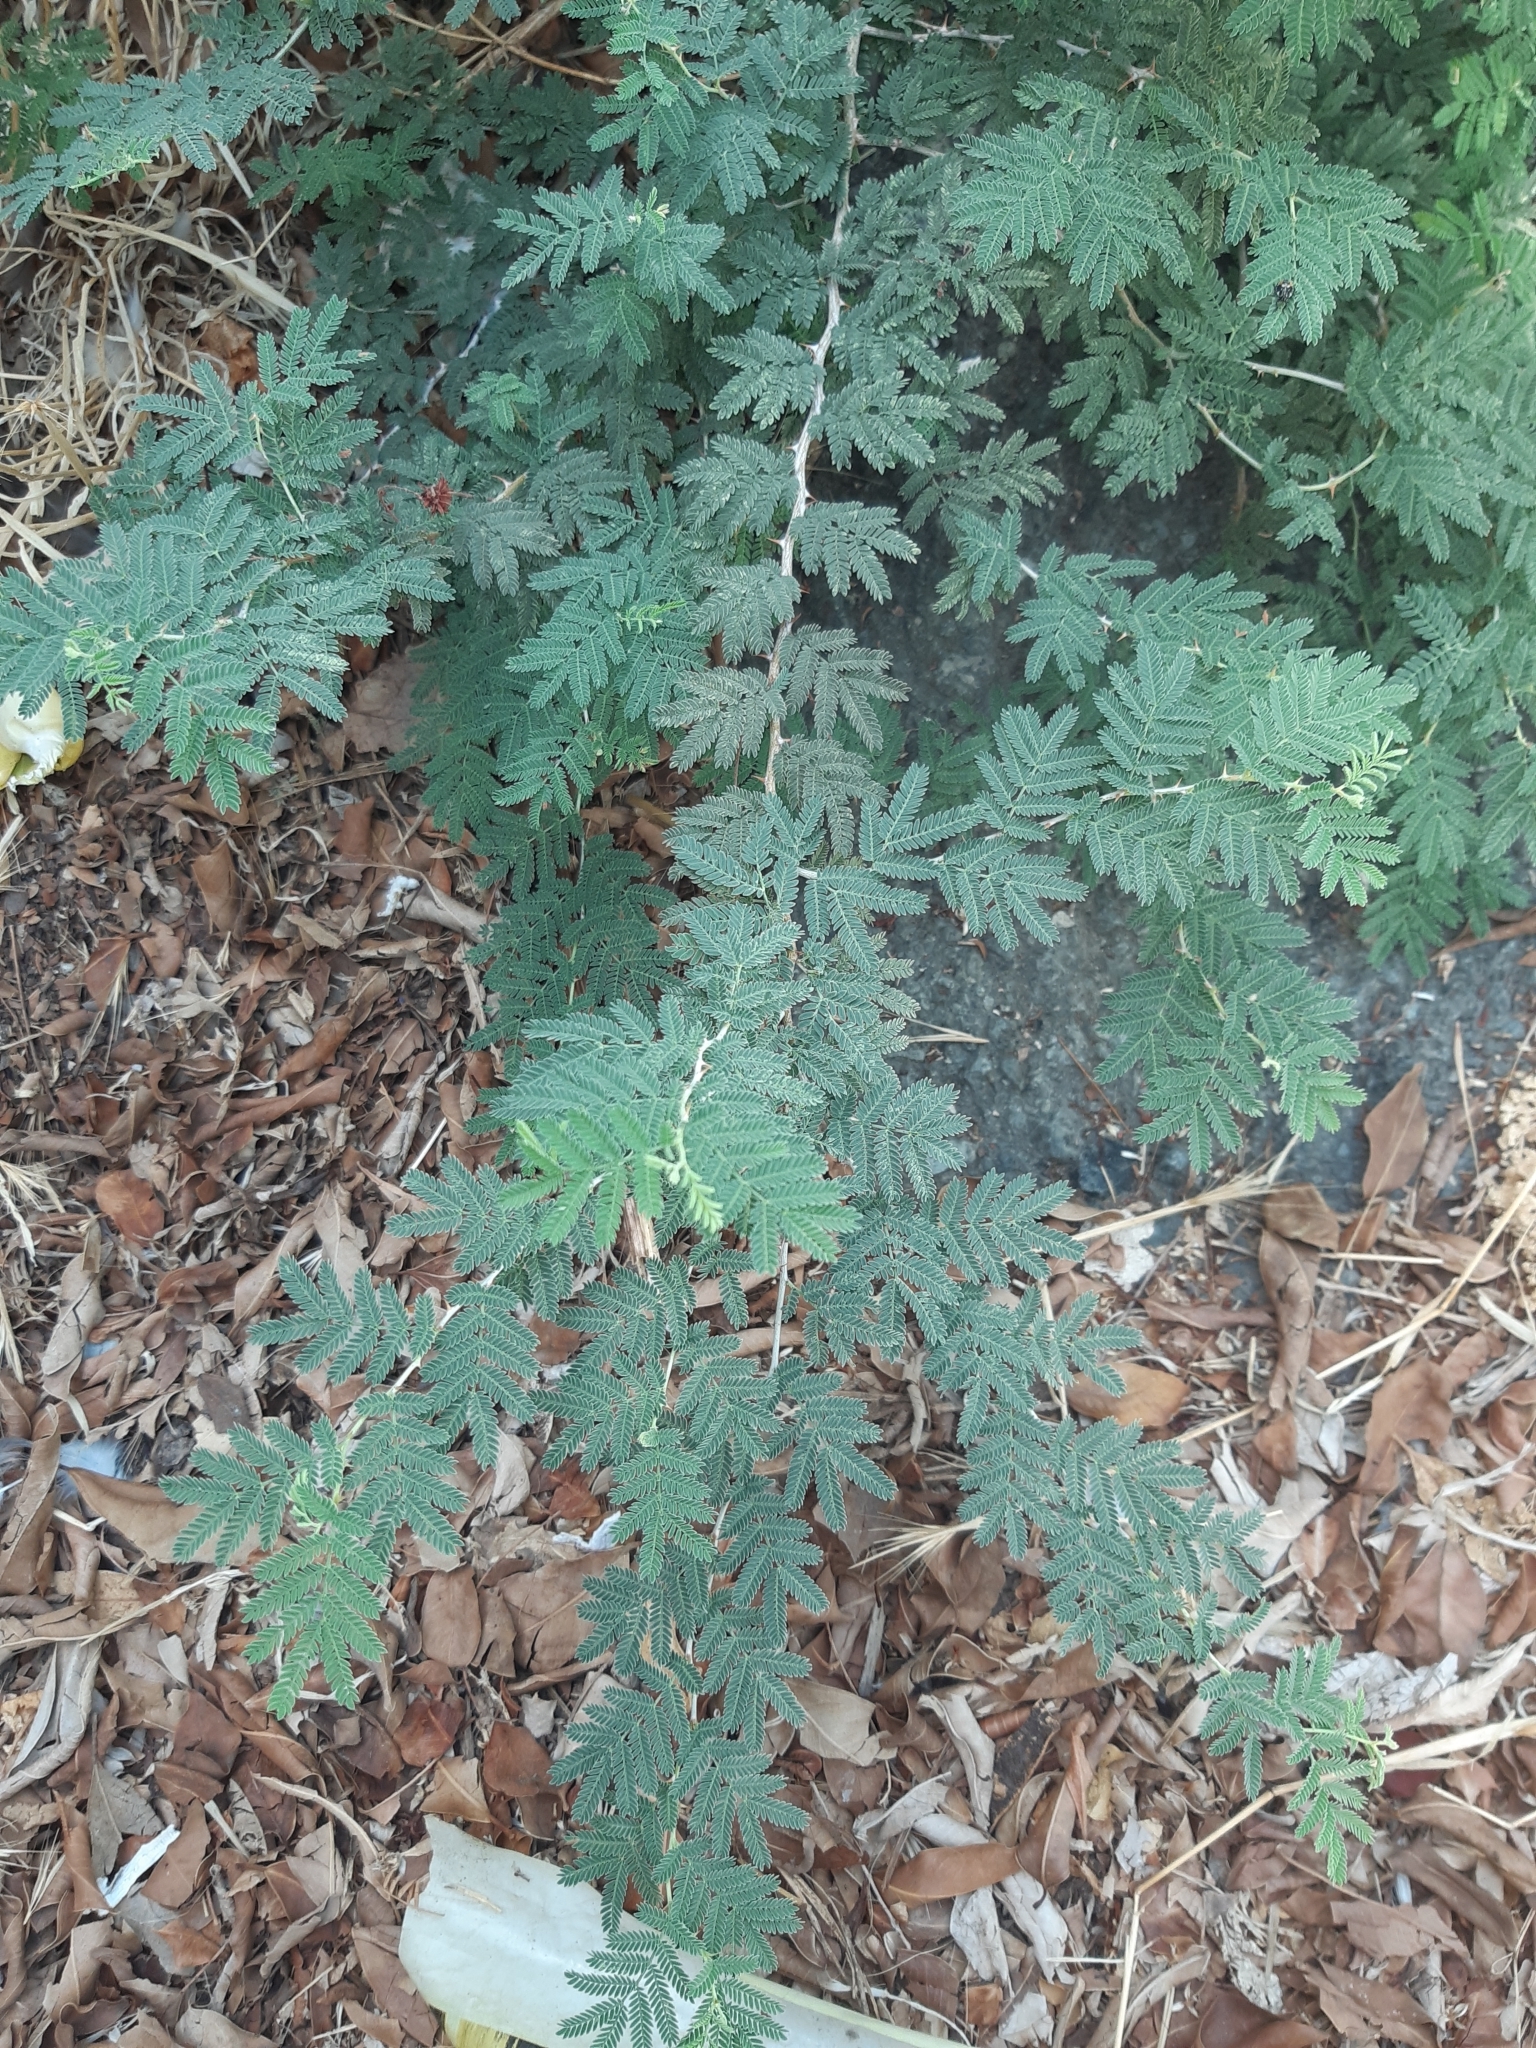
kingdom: Plantae
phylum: Tracheophyta
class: Magnoliopsida
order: Fabales
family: Fabaceae
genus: Prosopis
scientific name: Prosopis farcta
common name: Syrian mesquite
